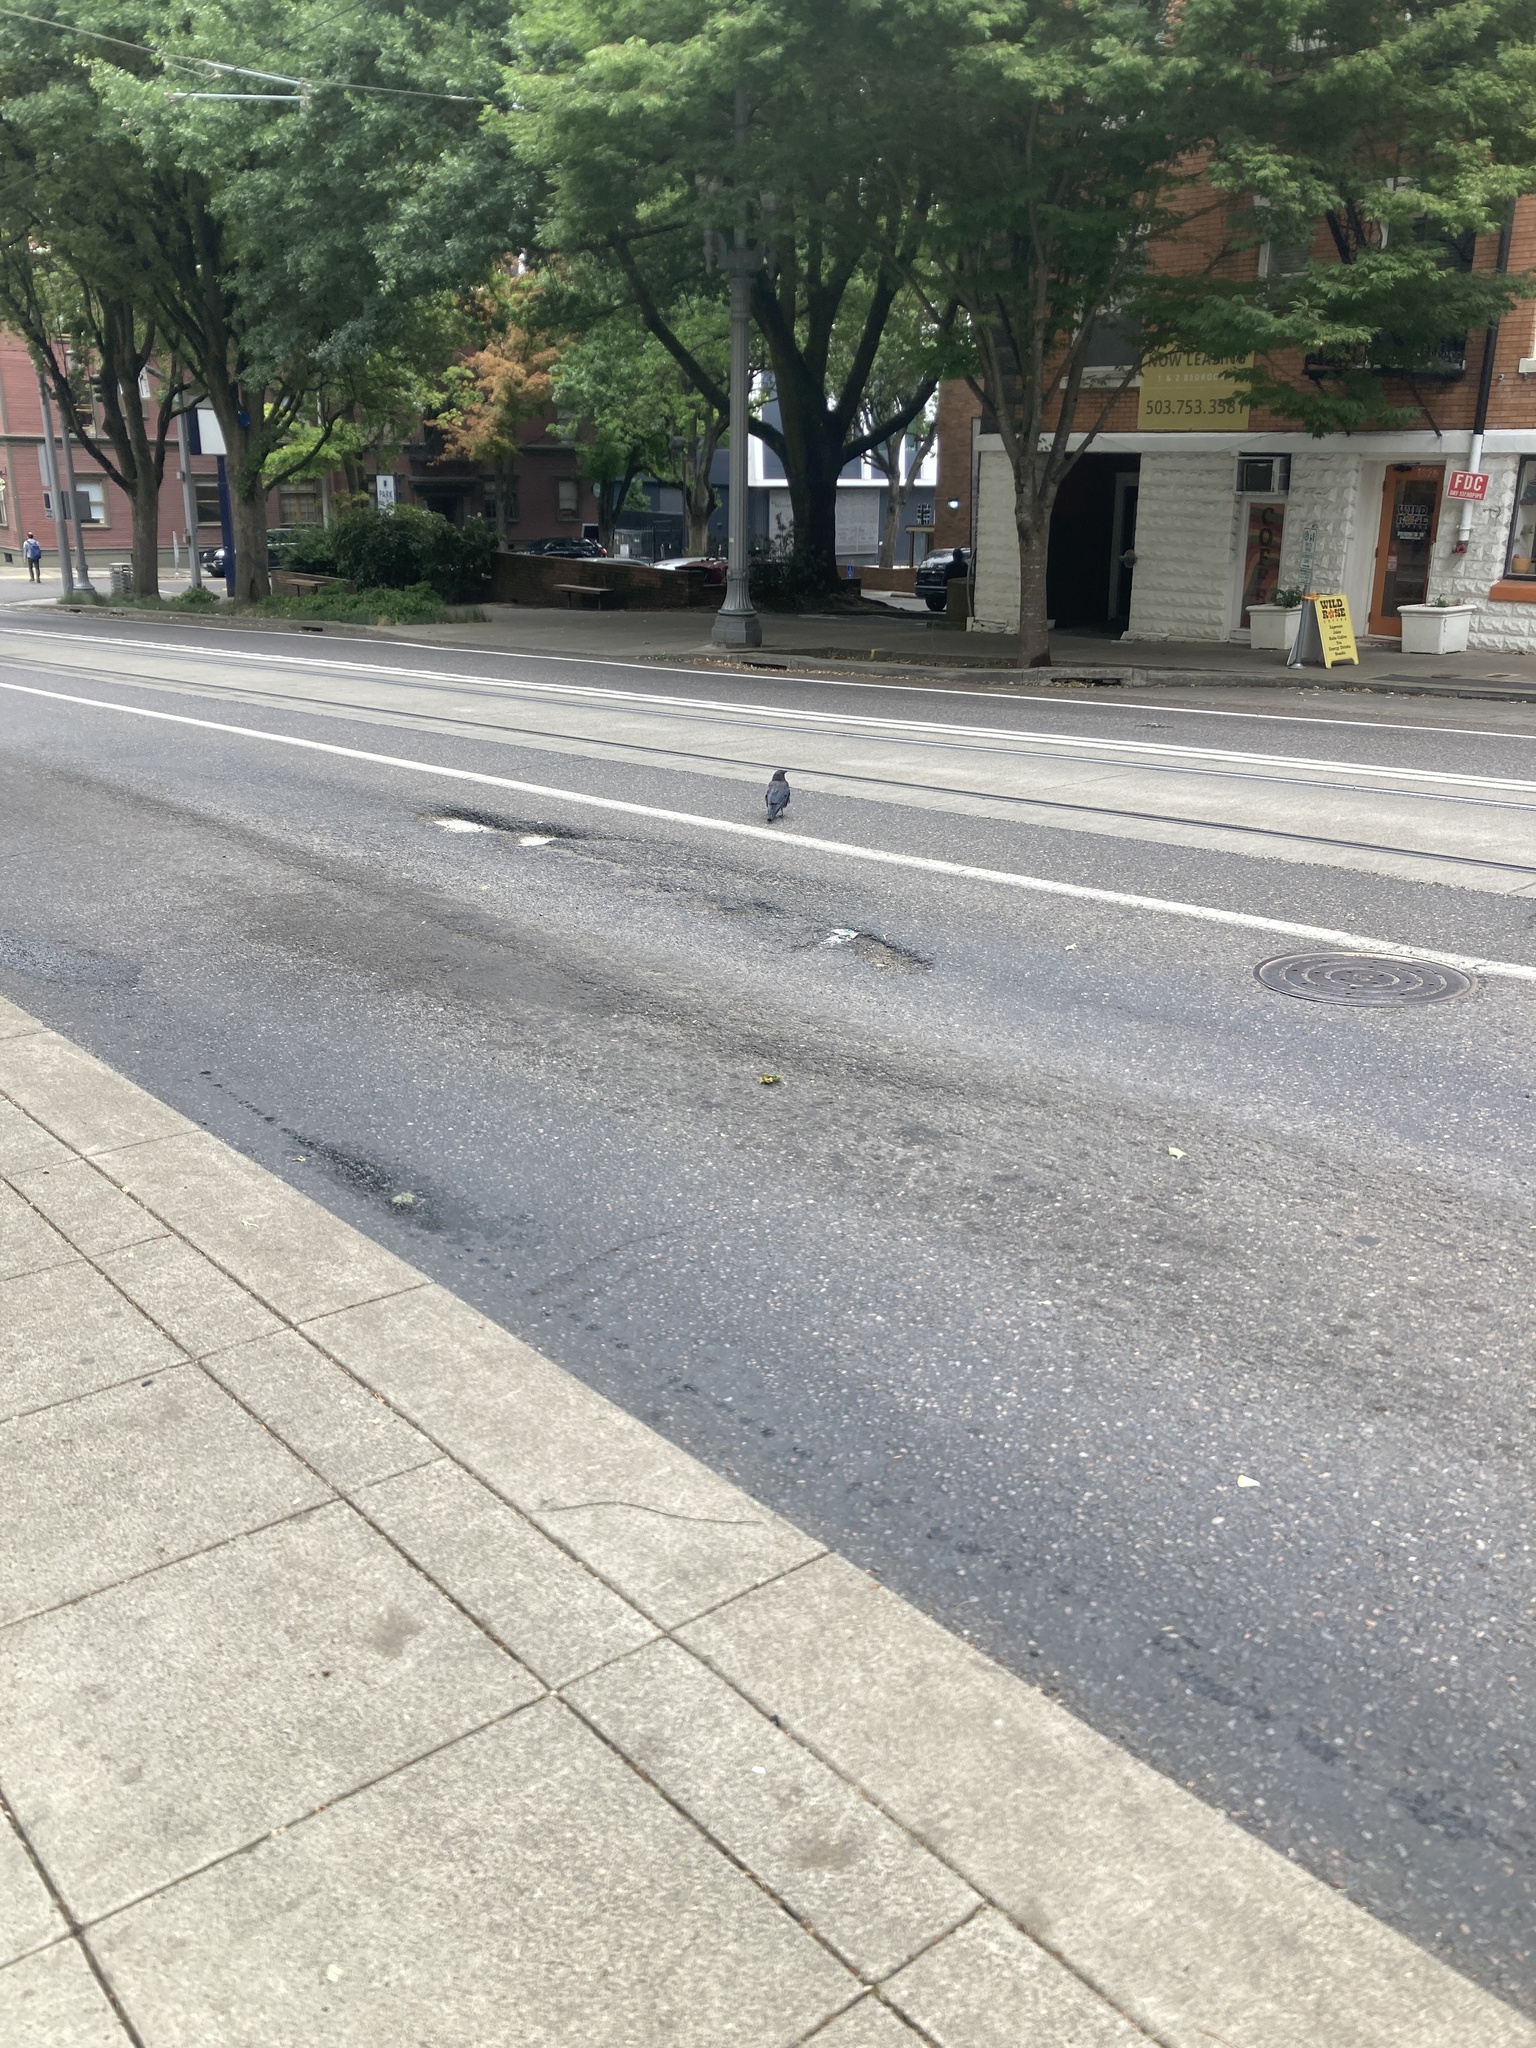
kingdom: Animalia
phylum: Chordata
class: Aves
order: Passeriformes
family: Corvidae
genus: Corvus
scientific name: Corvus brachyrhynchos
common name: American crow
